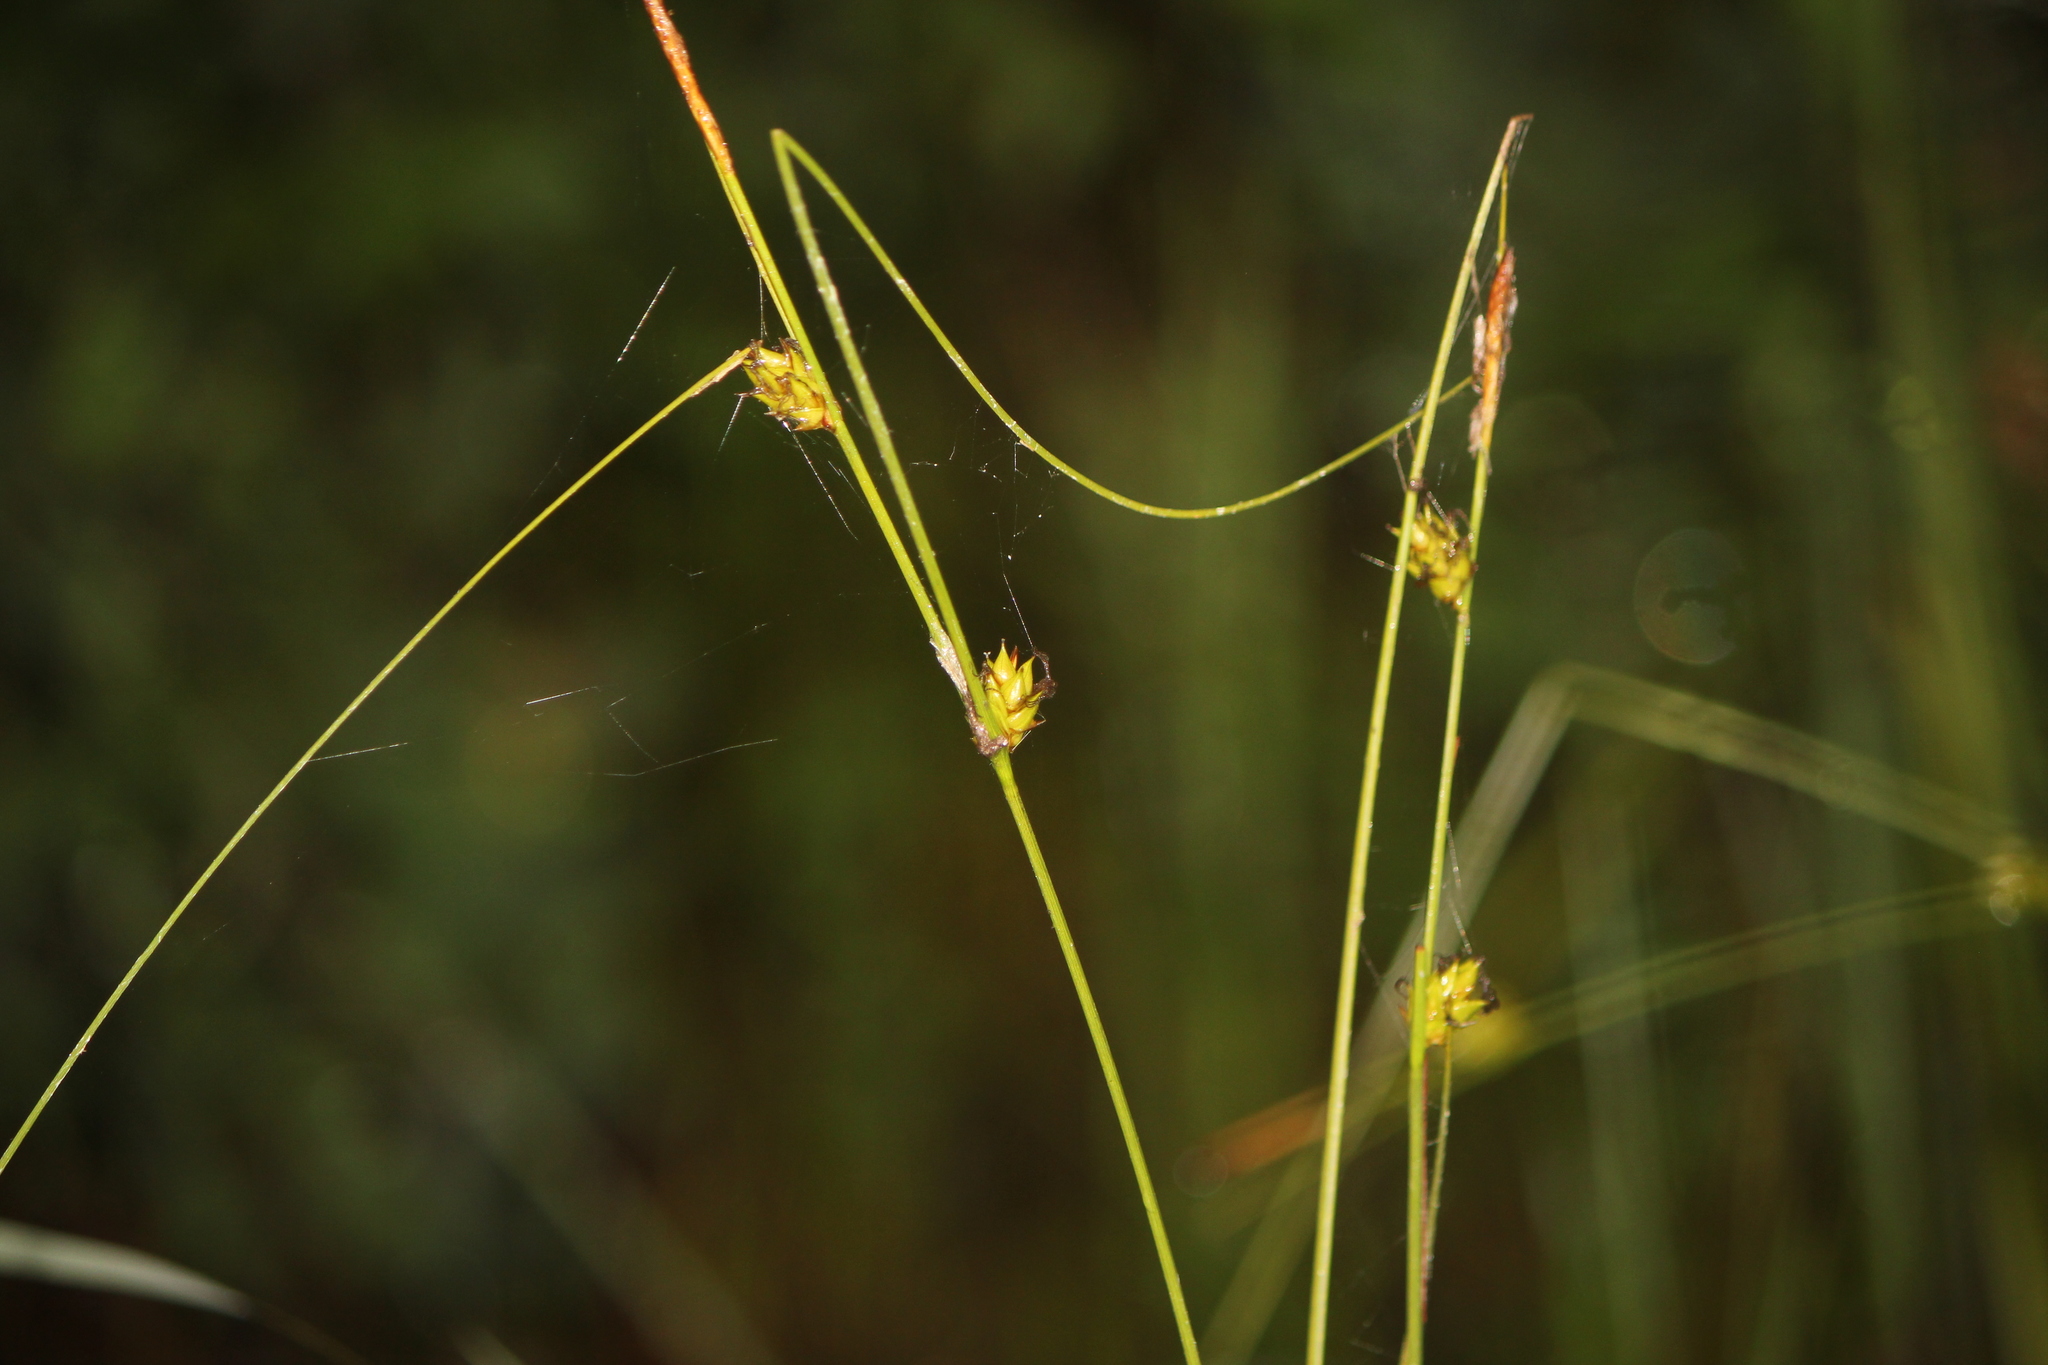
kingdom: Plantae
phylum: Tracheophyta
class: Liliopsida
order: Poales
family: Cyperaceae
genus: Carex
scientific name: Carex oligosperma
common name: Few-seed sedge
